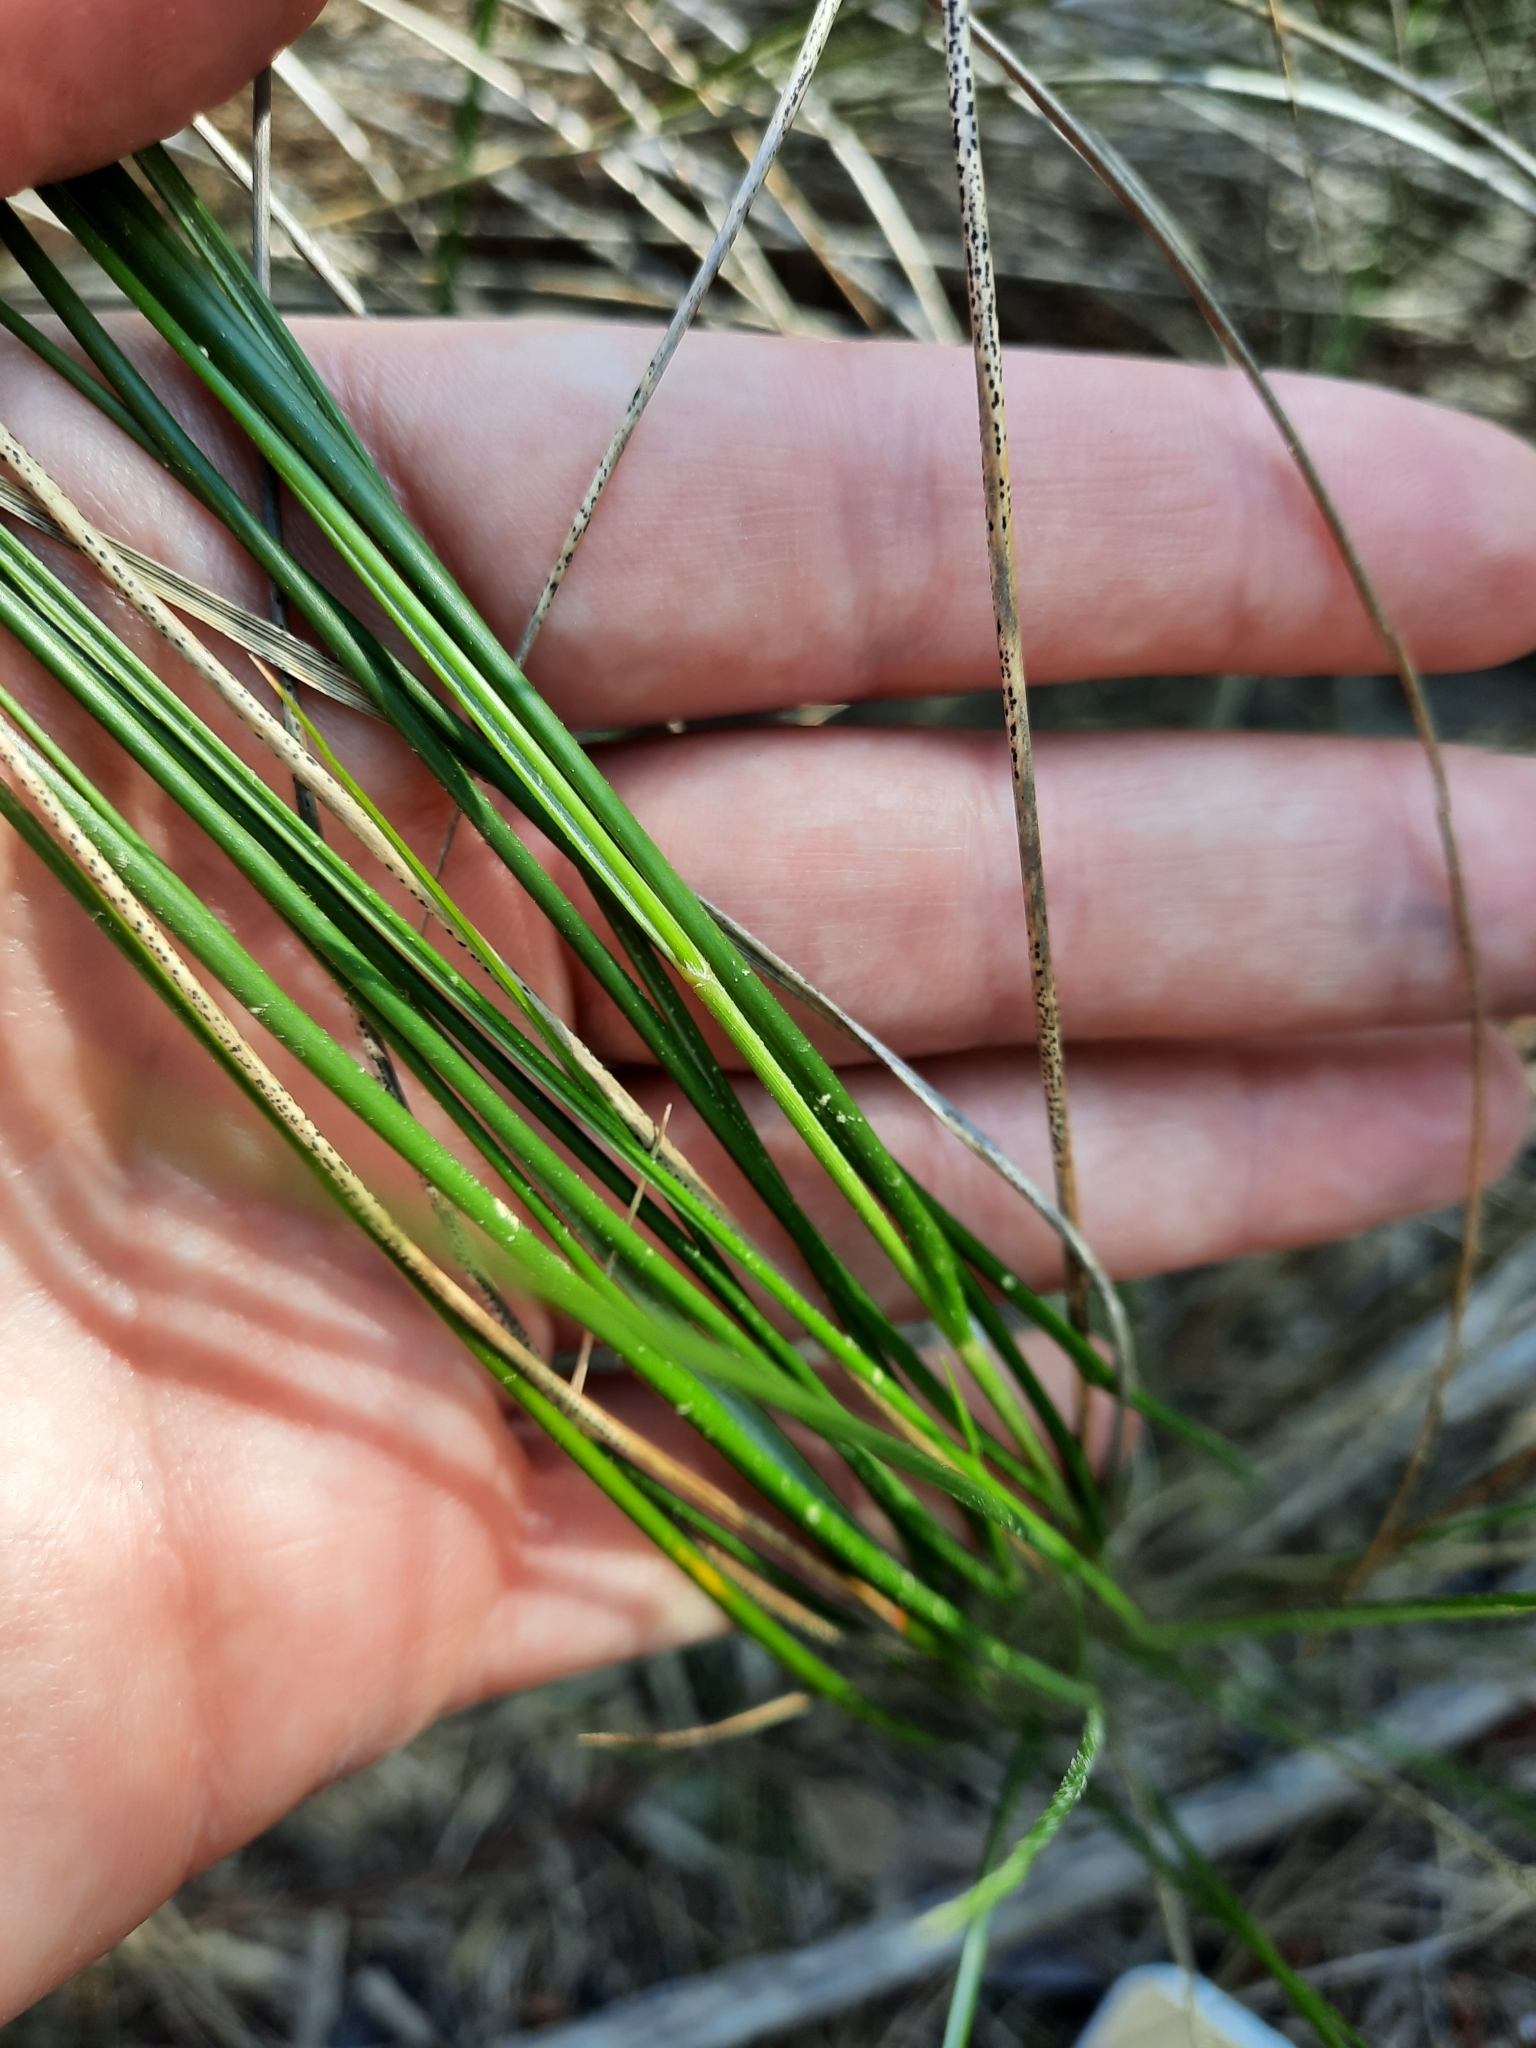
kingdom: Plantae
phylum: Tracheophyta
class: Liliopsida
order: Poales
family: Poaceae
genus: Sporobolus
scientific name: Sporobolus pumilus
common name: Highwater grass
